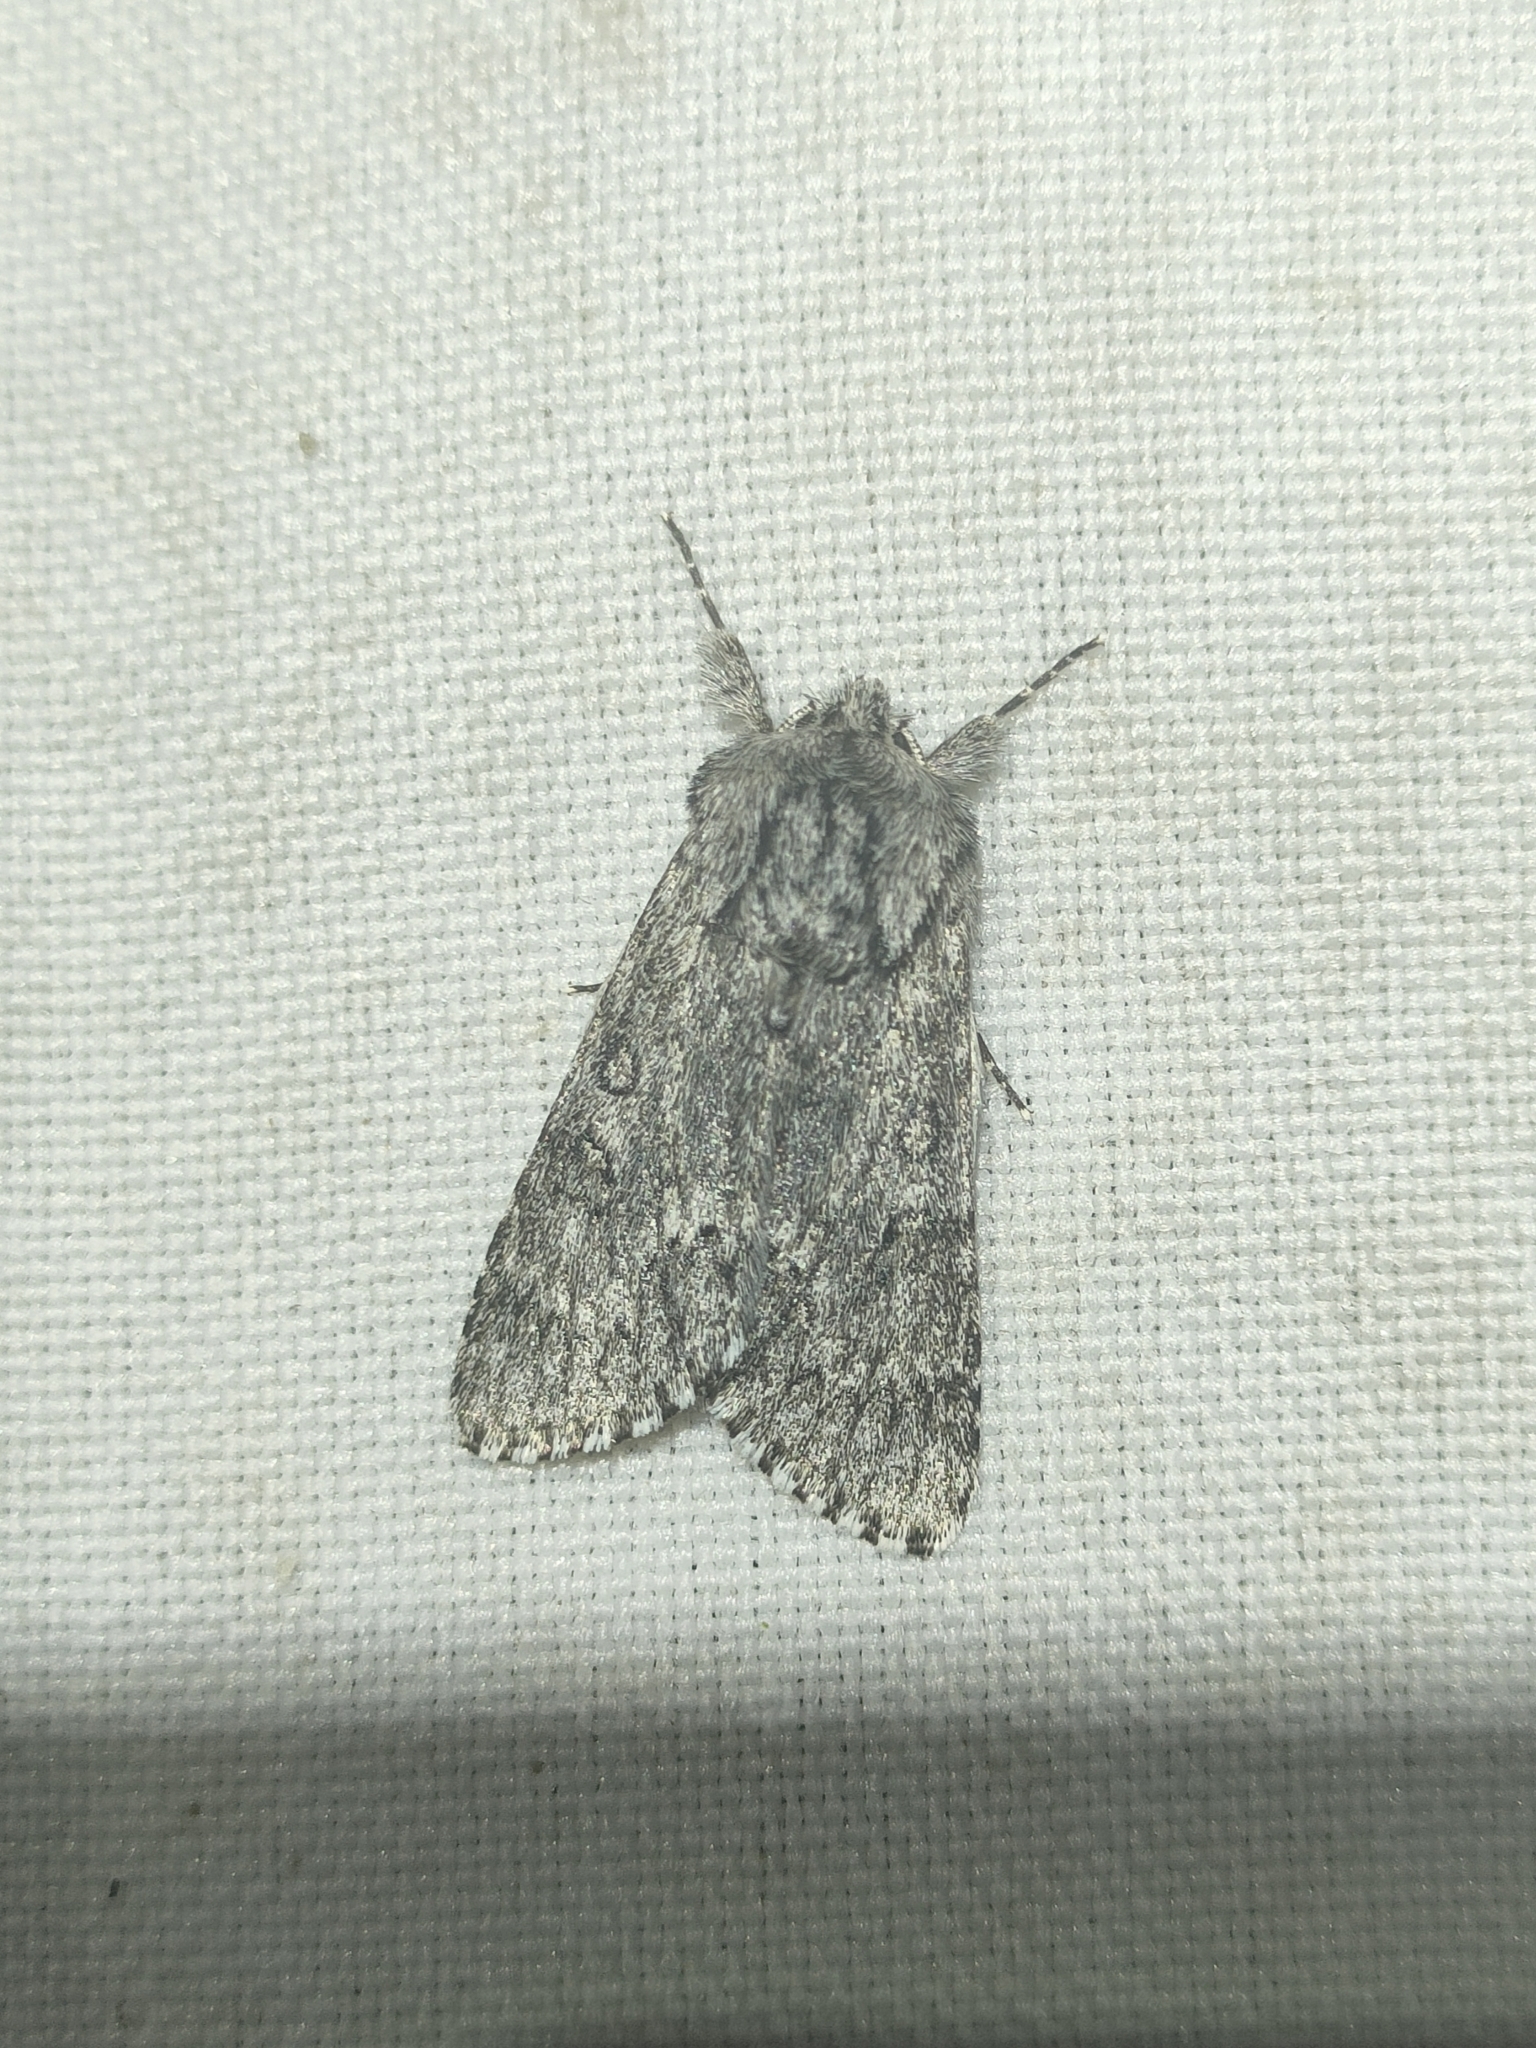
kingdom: Animalia
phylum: Arthropoda
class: Insecta
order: Lepidoptera
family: Noctuidae
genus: Acronicta
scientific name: Acronicta euphorbiae
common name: Sweet gale moth
